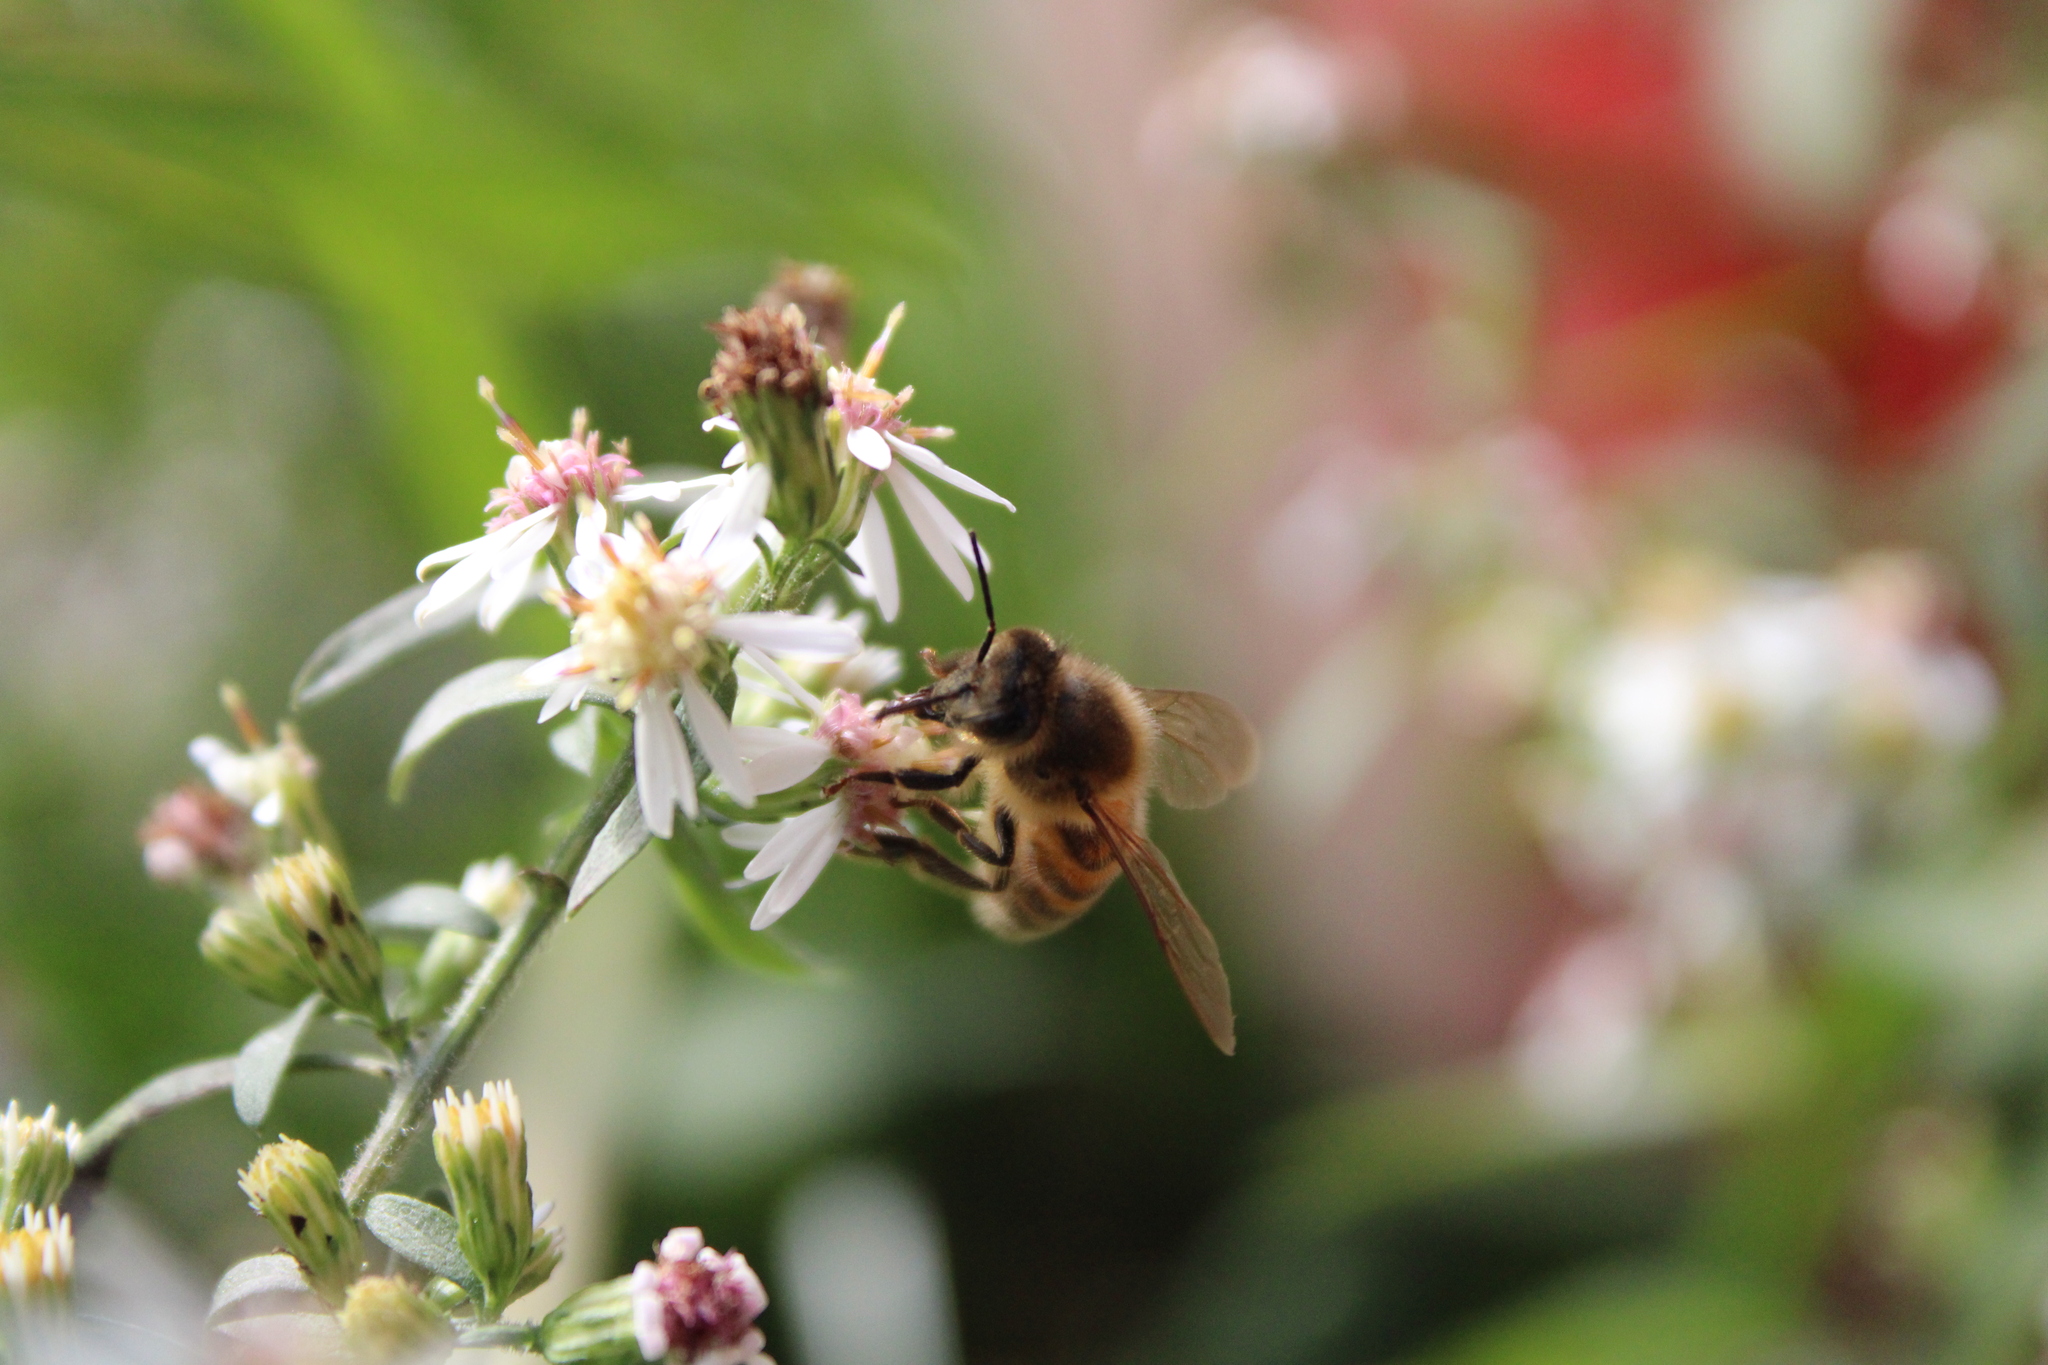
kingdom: Animalia
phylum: Arthropoda
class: Insecta
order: Hymenoptera
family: Apidae
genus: Apis
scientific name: Apis mellifera
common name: Honey bee
